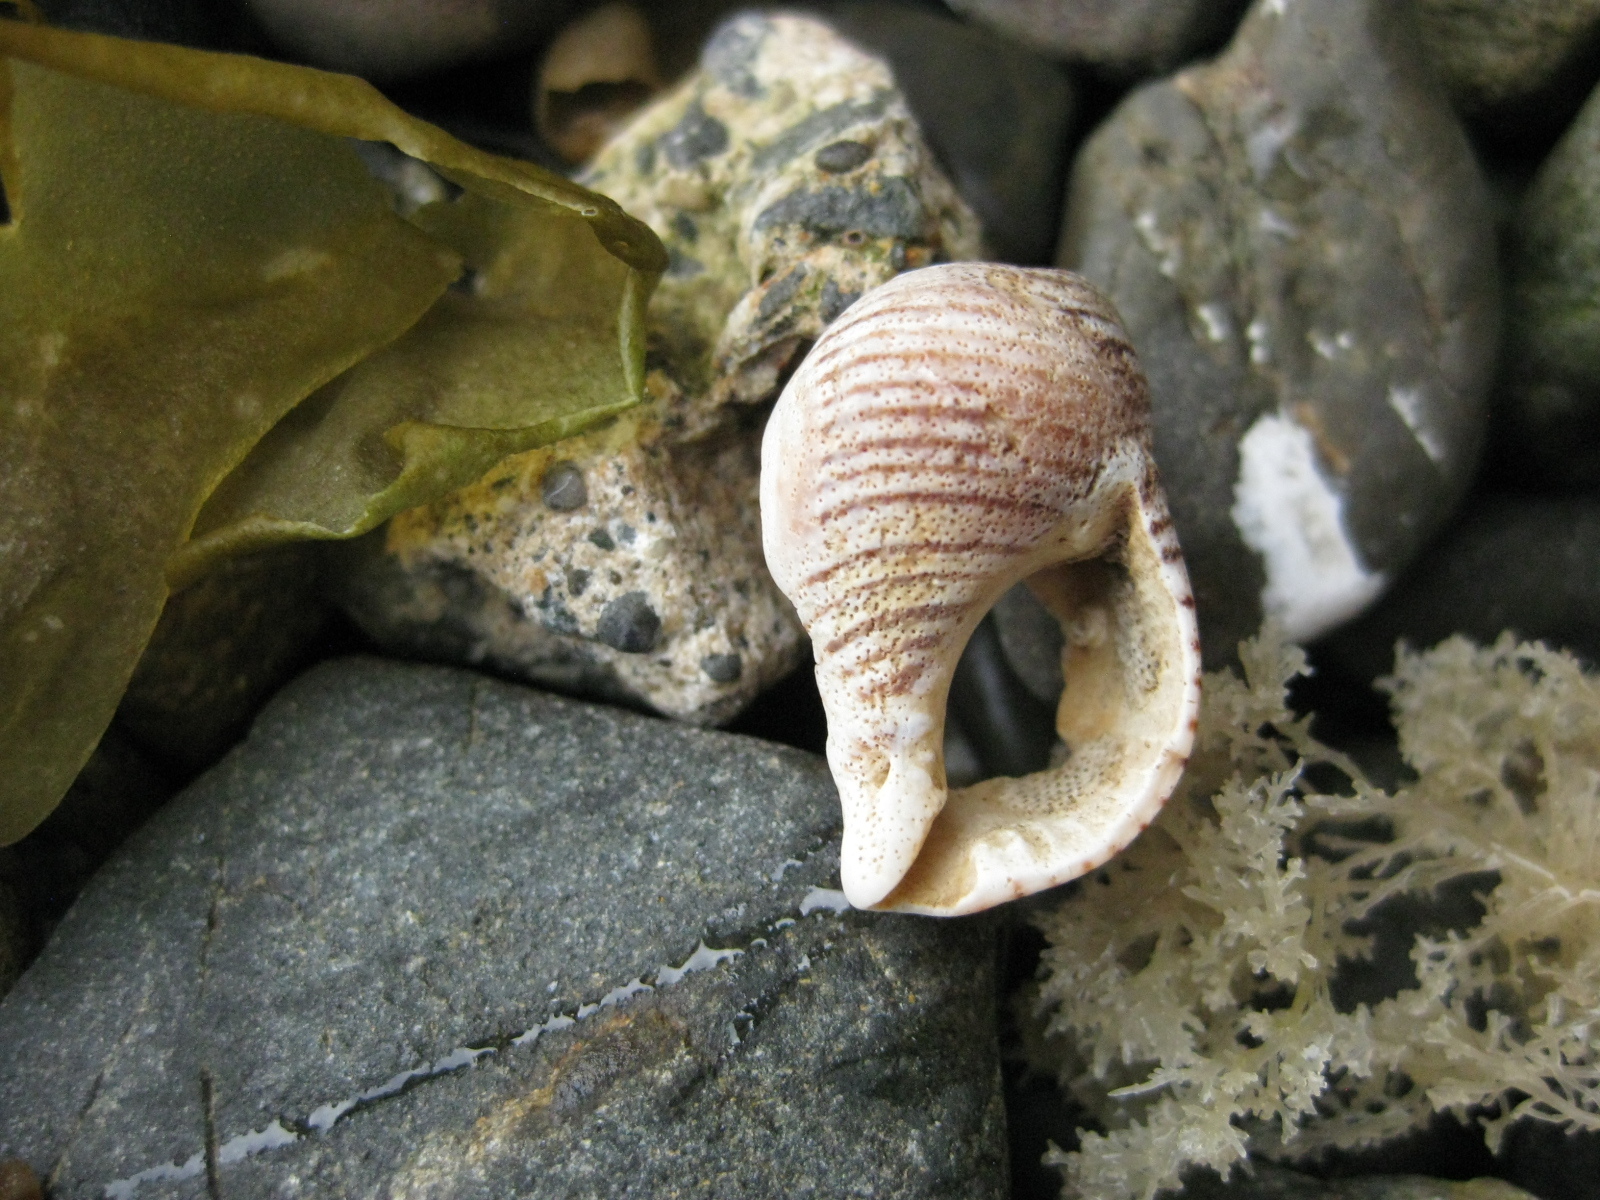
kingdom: Animalia
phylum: Mollusca
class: Gastropoda
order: Neogastropoda
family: Tudiclidae
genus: Buccinulum
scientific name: Buccinulum linea
